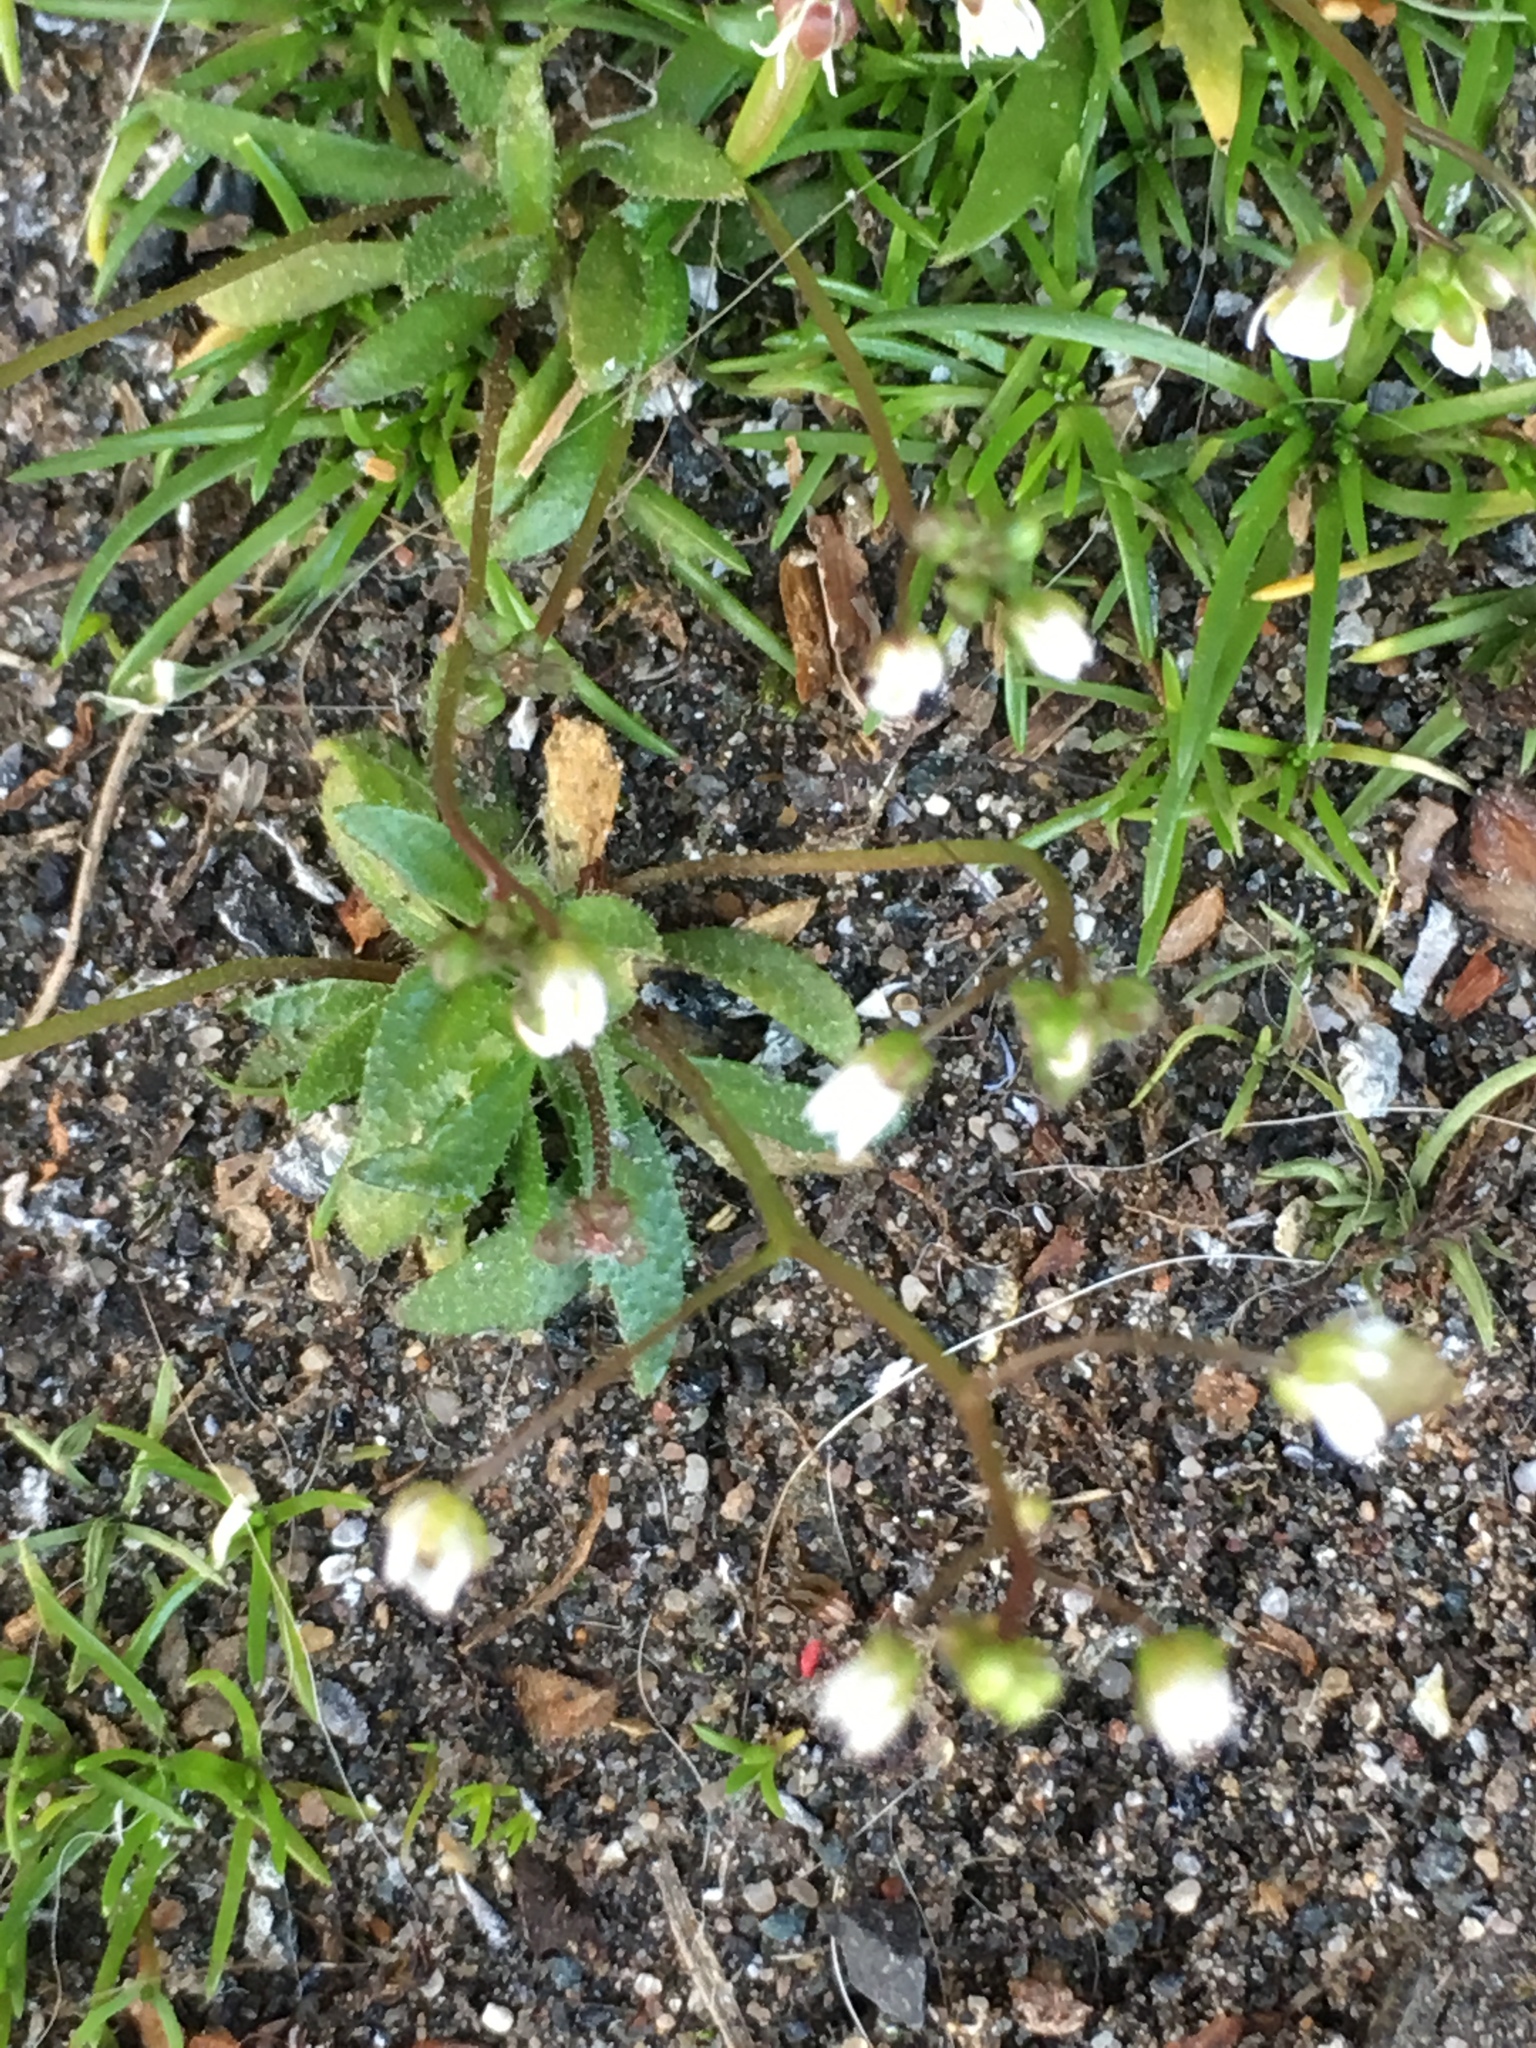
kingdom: Plantae
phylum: Tracheophyta
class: Magnoliopsida
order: Brassicales
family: Brassicaceae
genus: Draba
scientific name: Draba verna
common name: Spring draba
